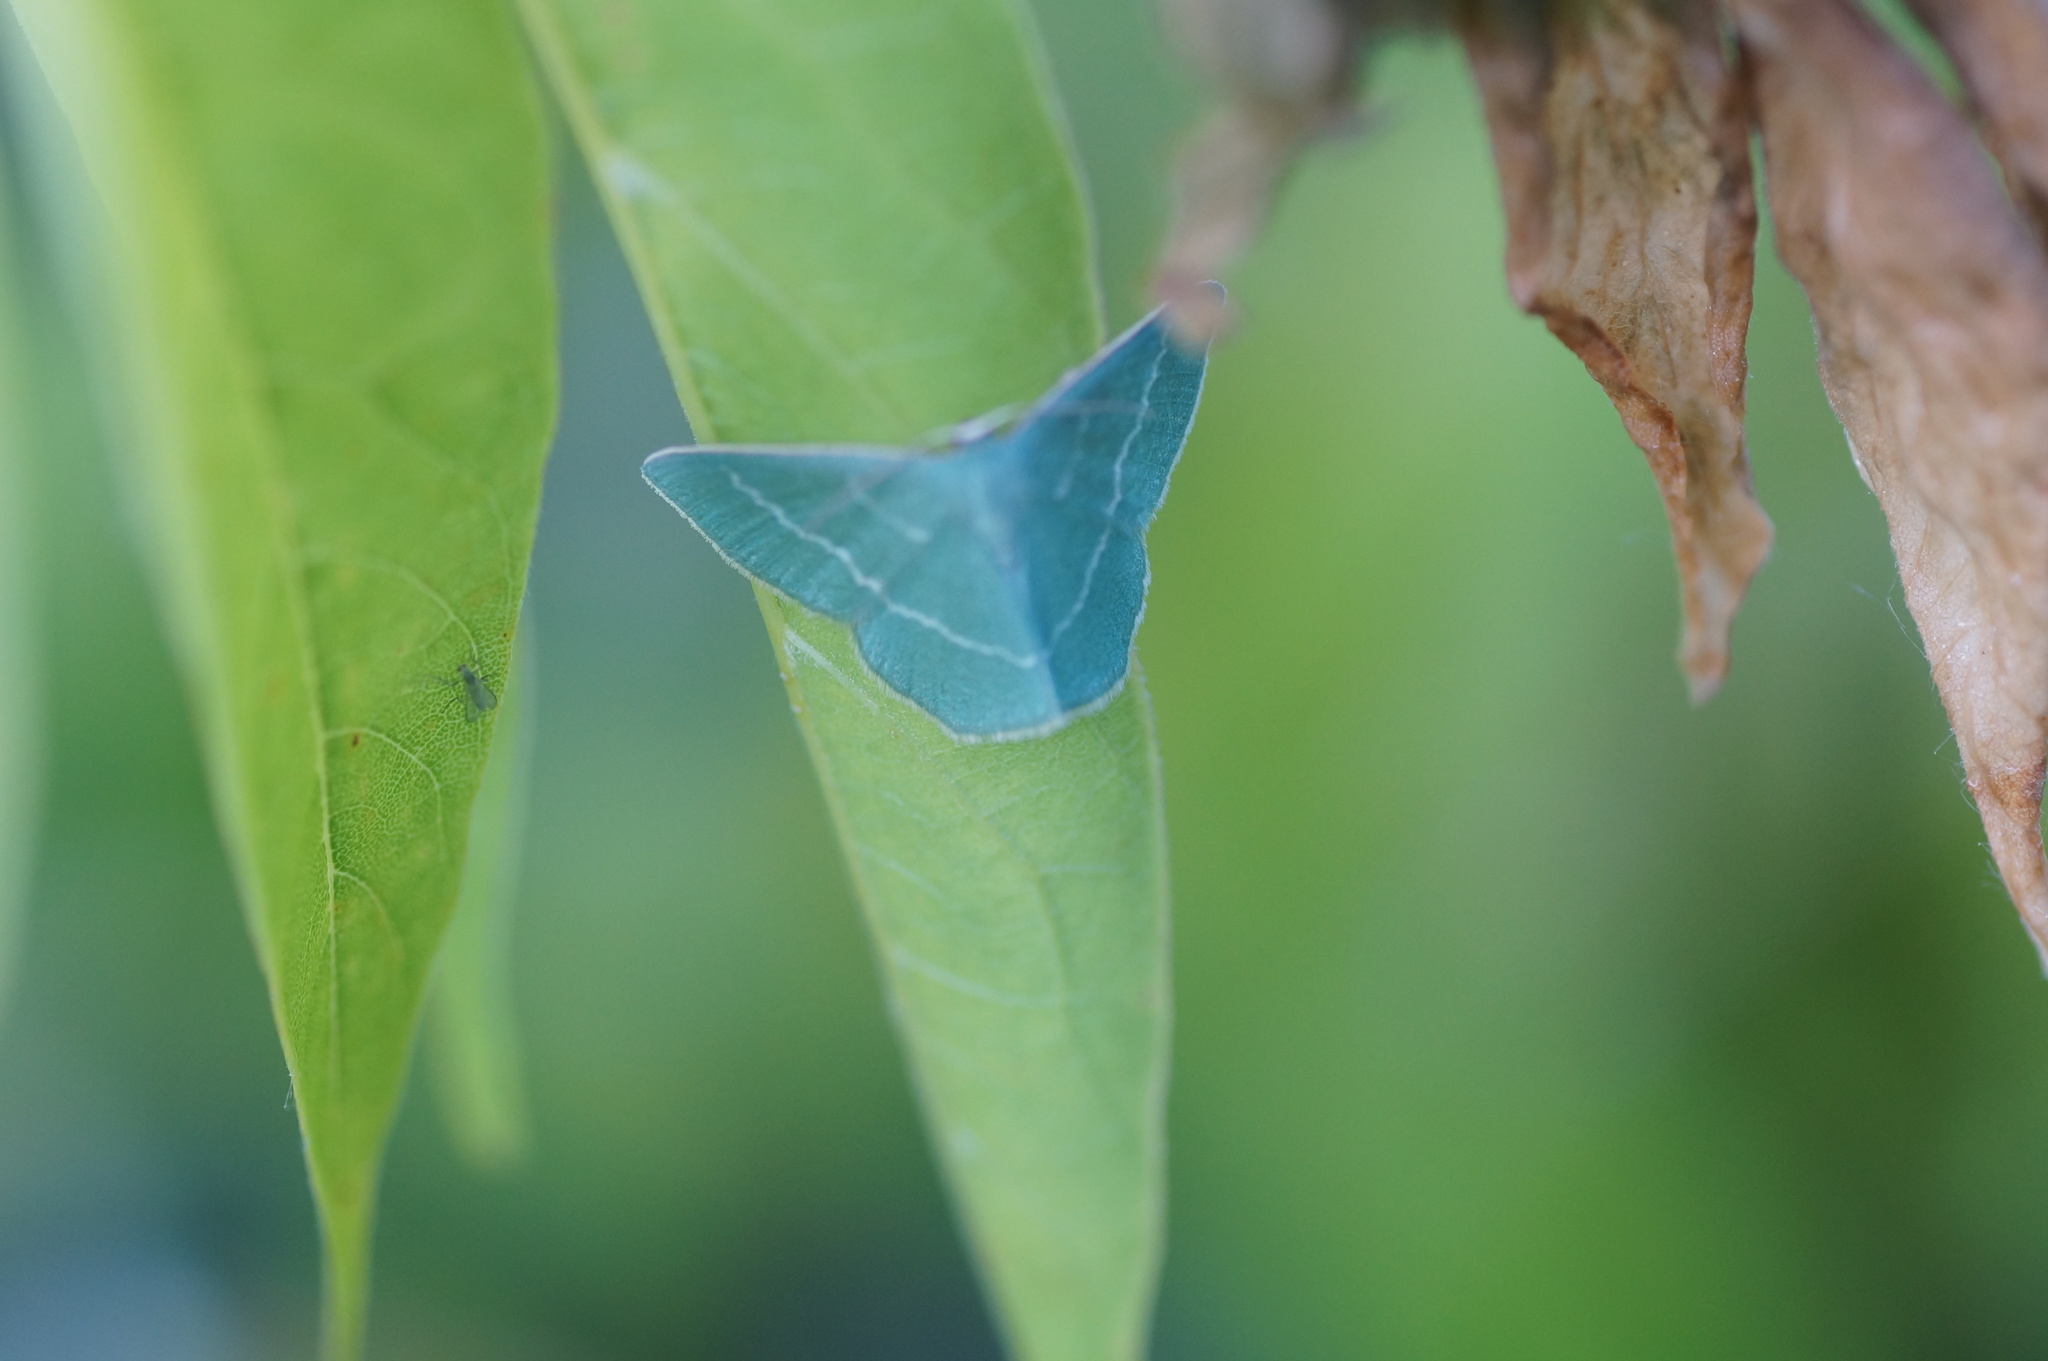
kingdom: Animalia
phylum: Arthropoda
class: Insecta
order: Lepidoptera
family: Geometridae
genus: Chlorissa
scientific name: Chlorissa viridata
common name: Small grass emerald
